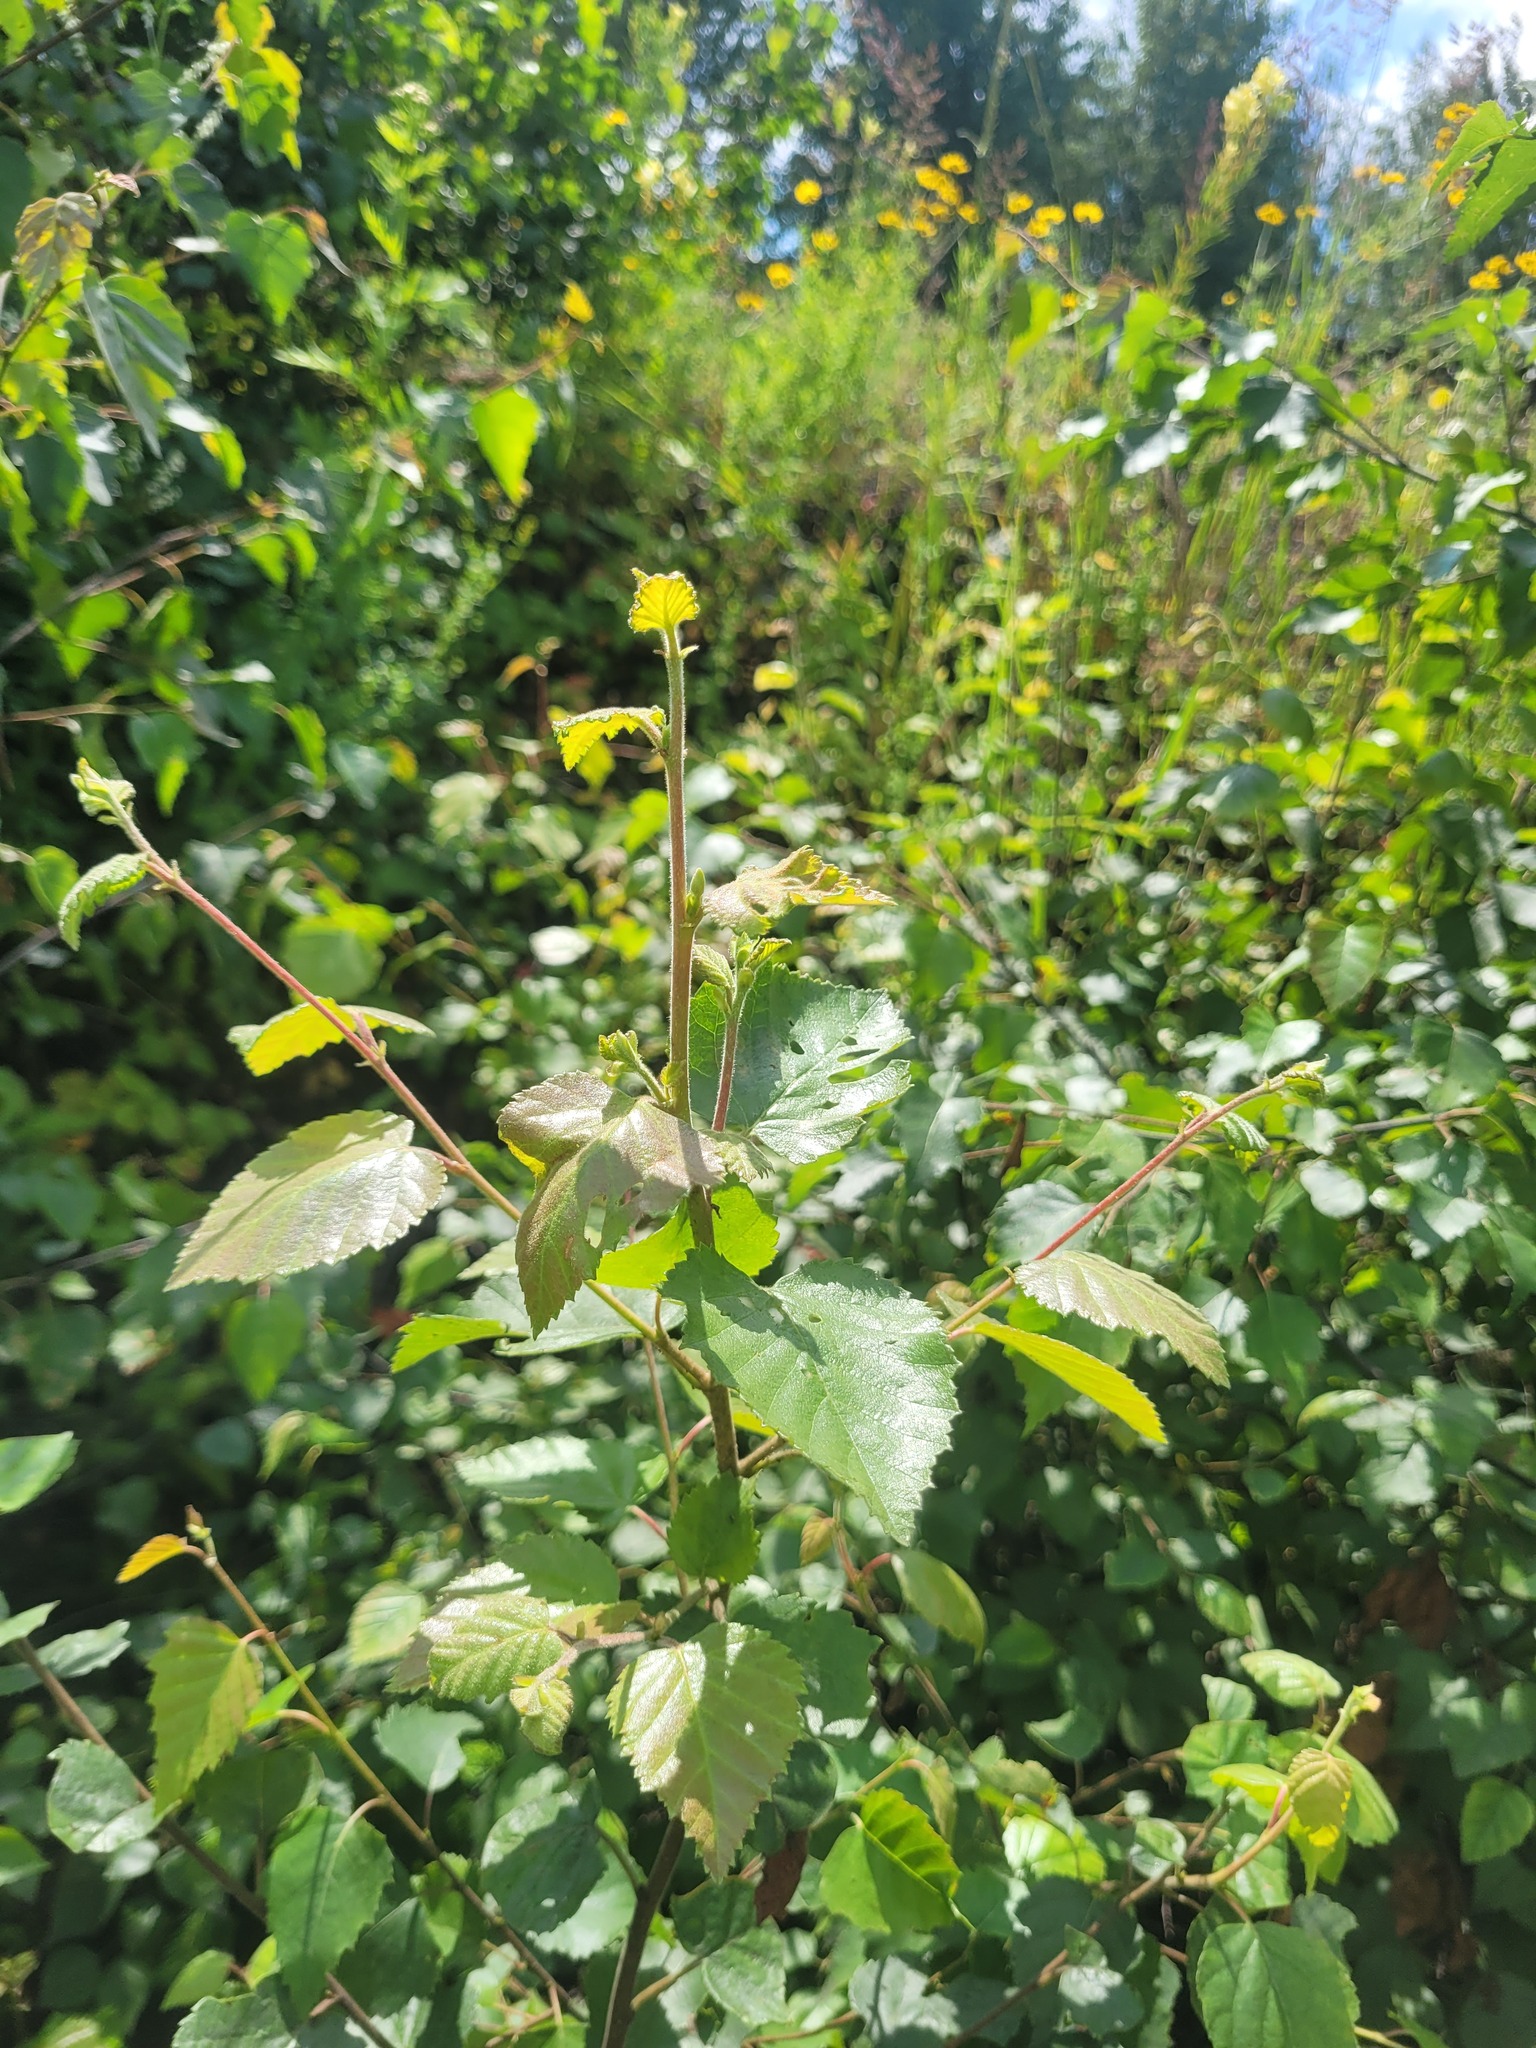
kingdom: Plantae
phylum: Tracheophyta
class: Magnoliopsida
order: Fagales
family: Betulaceae
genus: Betula
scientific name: Betula pubescens
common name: Downy birch
